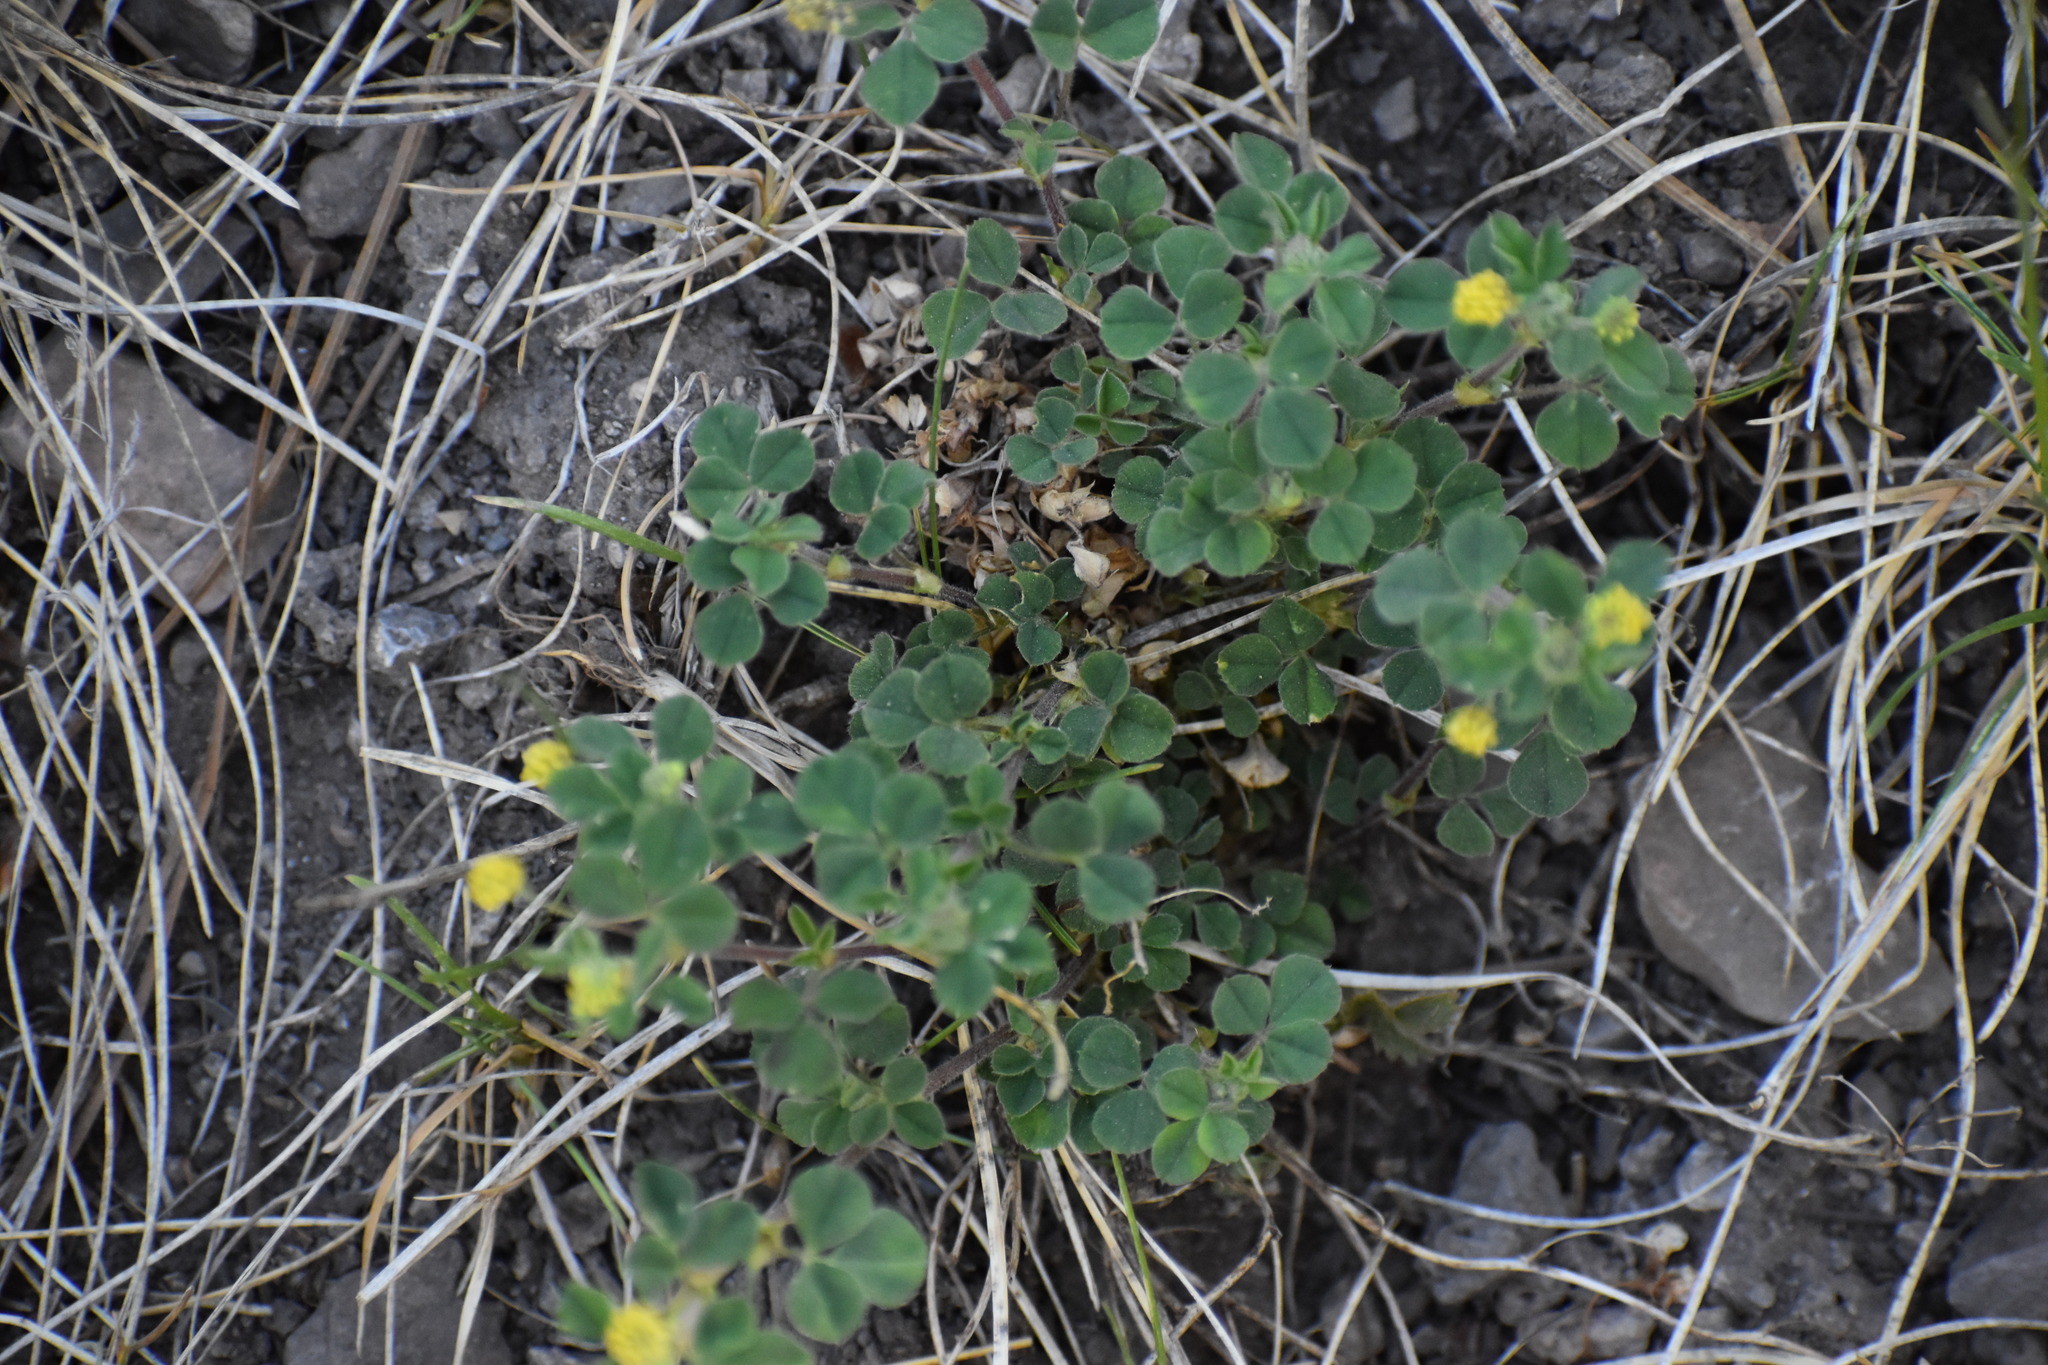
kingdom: Plantae
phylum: Tracheophyta
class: Magnoliopsida
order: Fabales
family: Fabaceae
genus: Medicago
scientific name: Medicago lupulina
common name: Black medick
